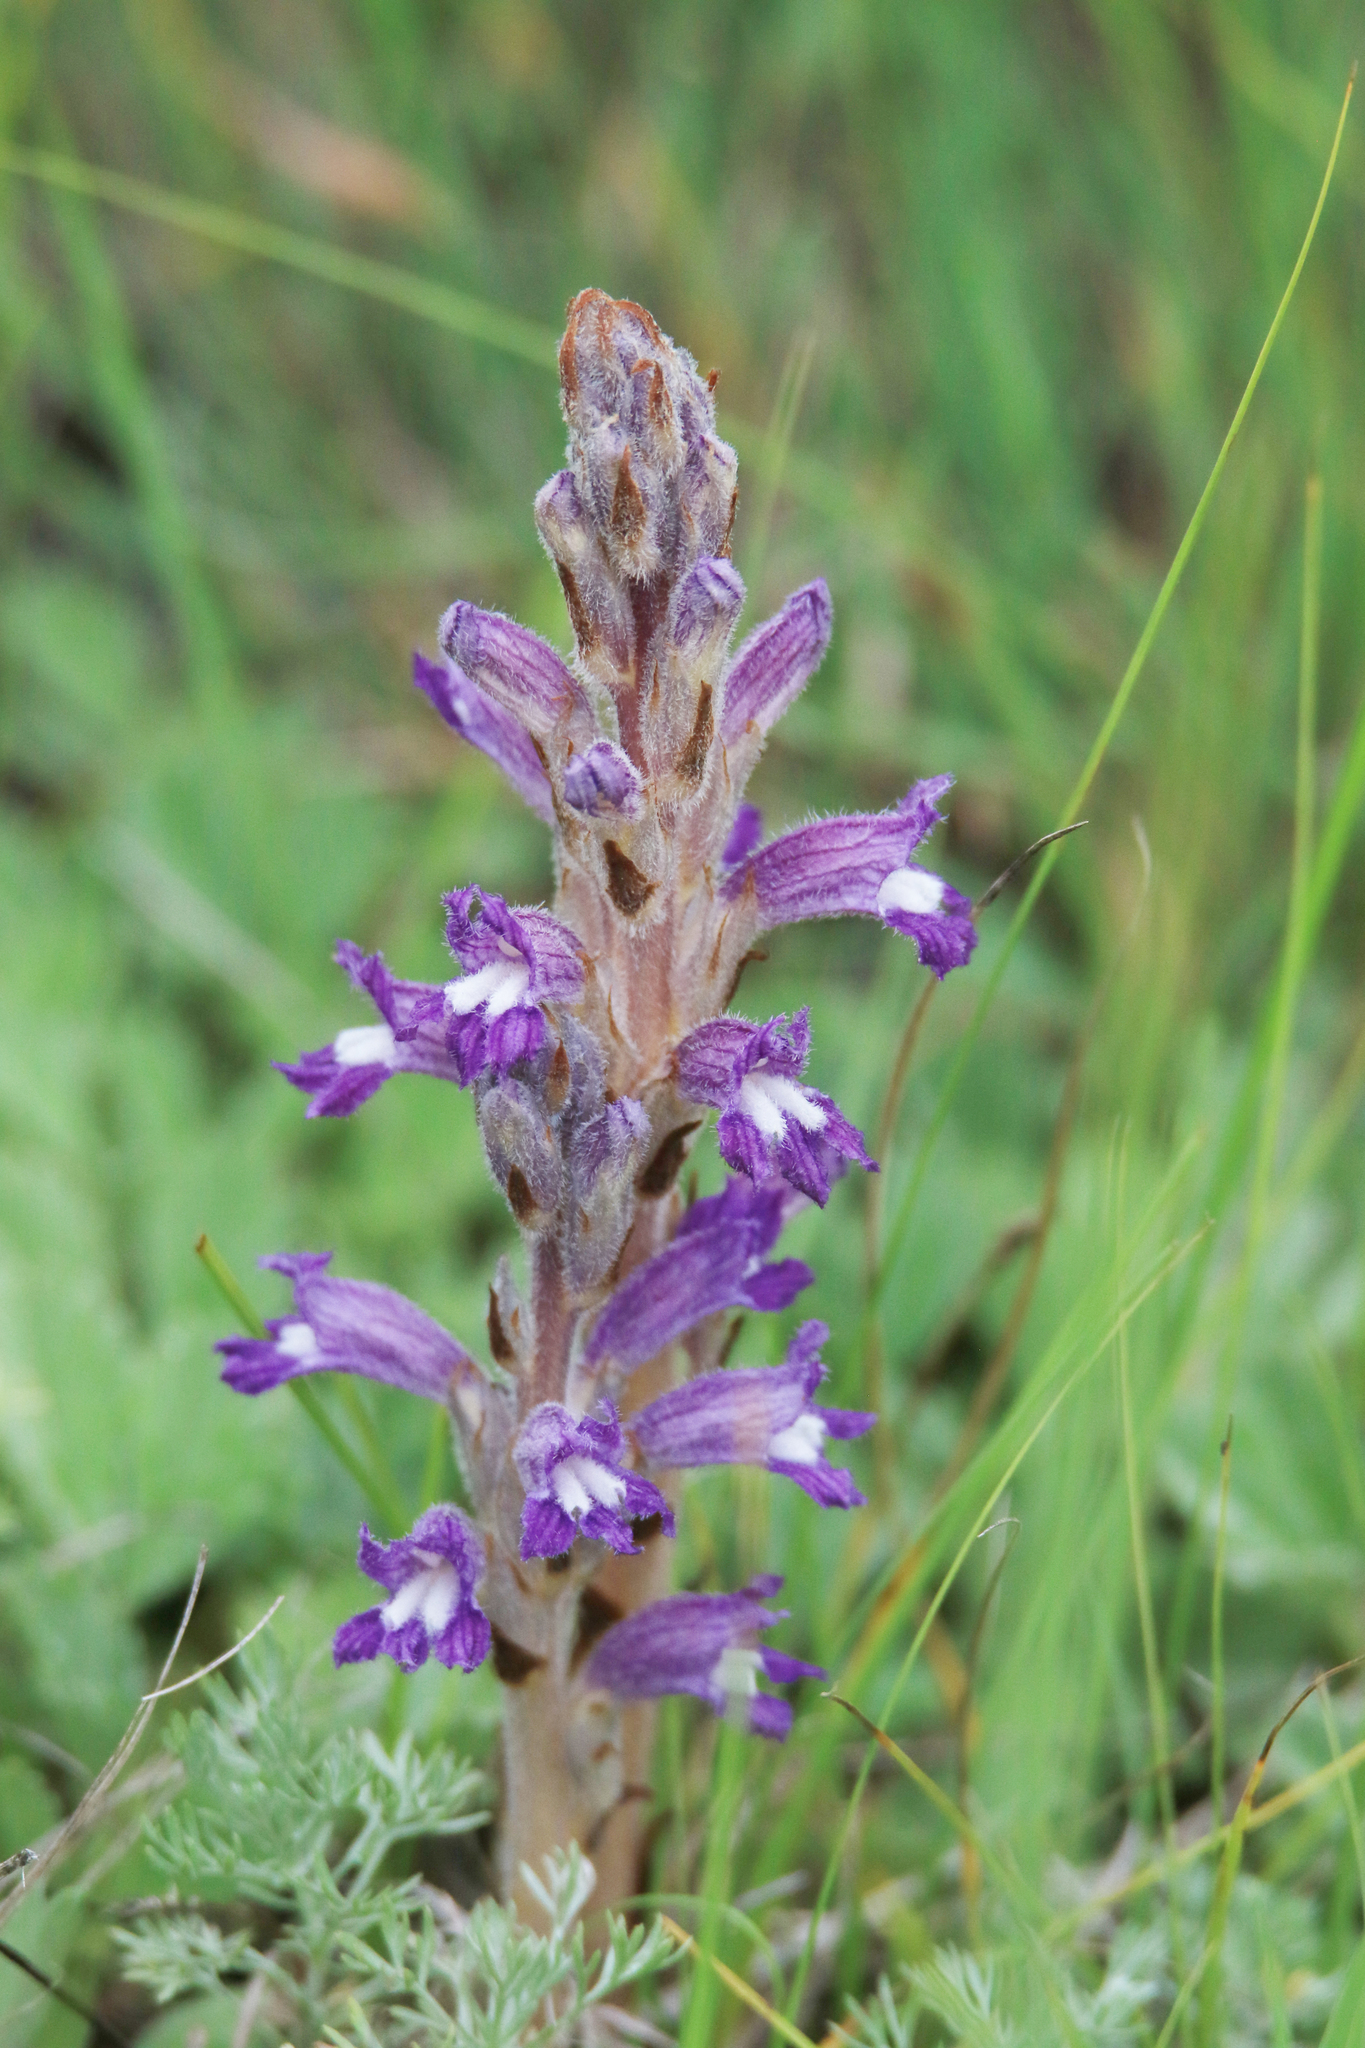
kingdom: Plantae
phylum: Tracheophyta
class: Magnoliopsida
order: Lamiales
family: Orobanchaceae
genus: Phelipanche
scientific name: Phelipanche caesia
